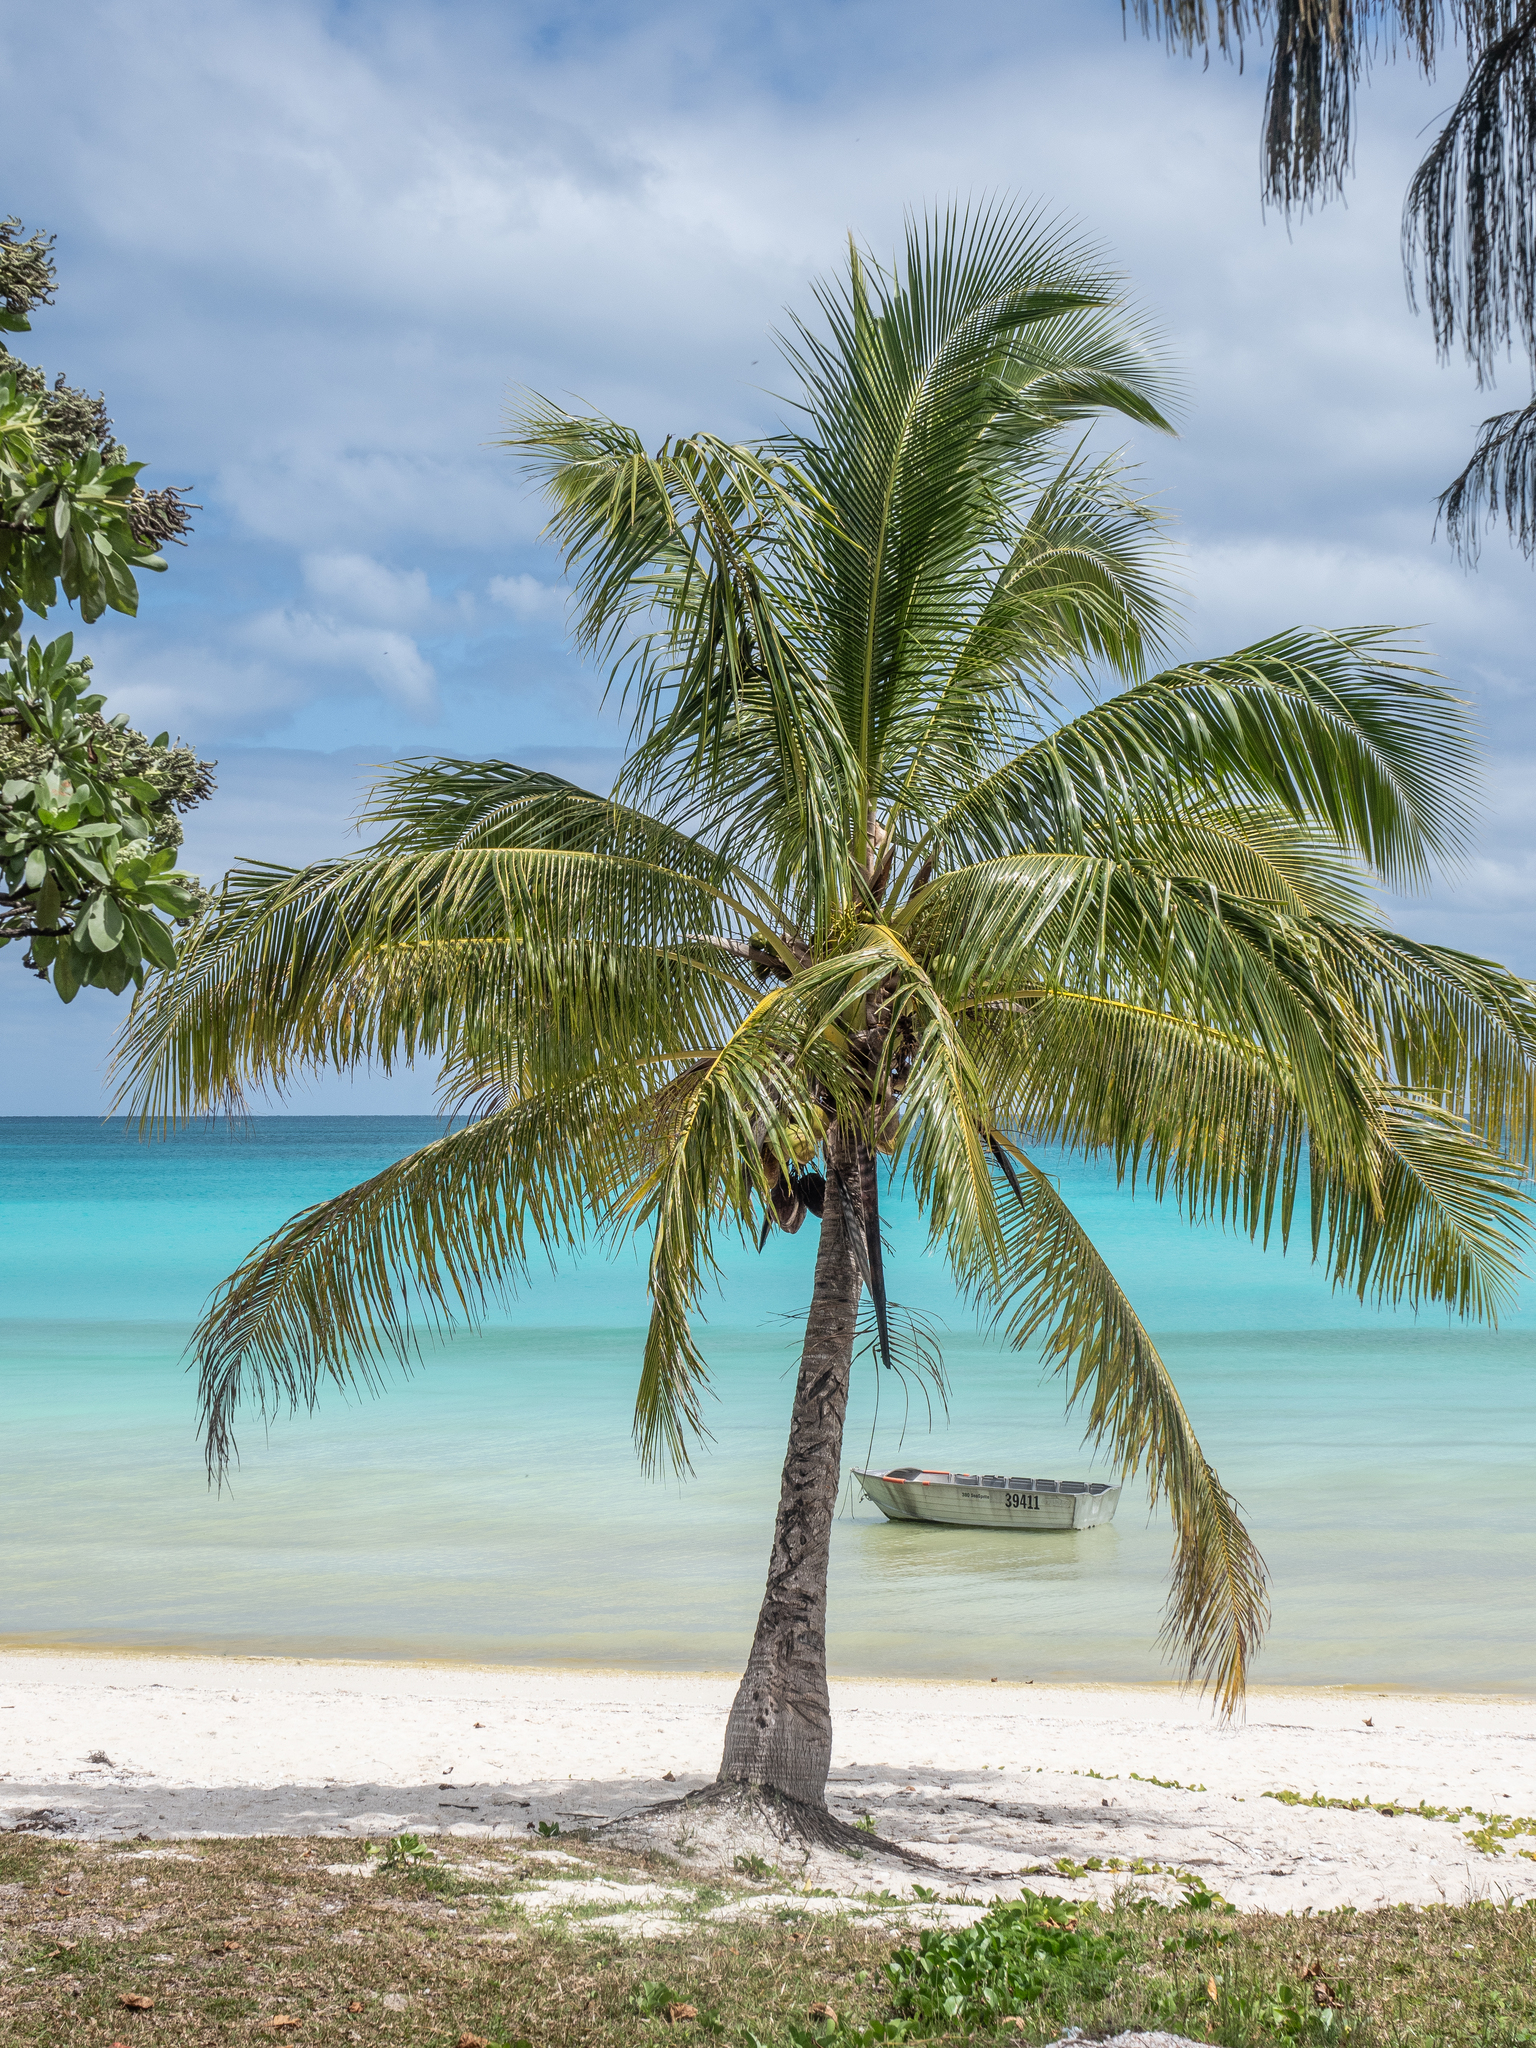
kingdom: Plantae
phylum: Tracheophyta
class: Liliopsida
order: Arecales
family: Arecaceae
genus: Cocos
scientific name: Cocos nucifera
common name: Coconut palm
